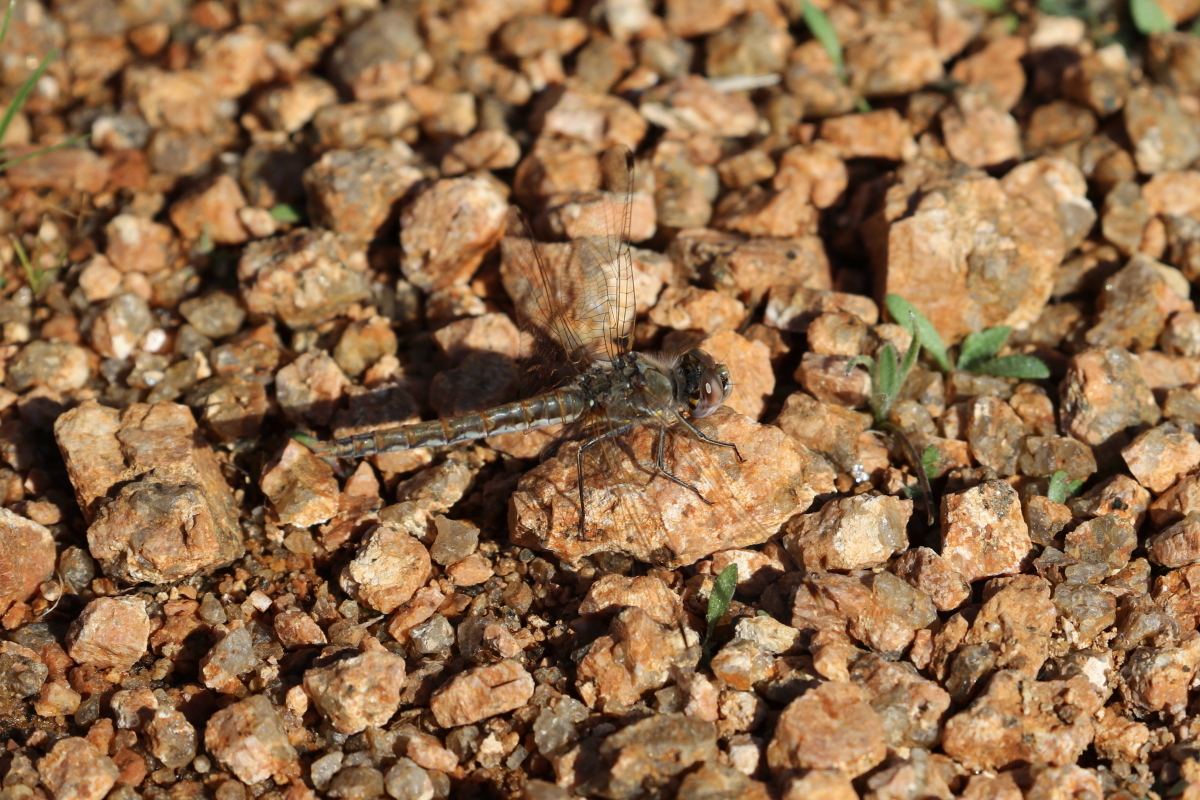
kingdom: Animalia
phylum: Arthropoda
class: Insecta
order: Odonata
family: Libellulidae
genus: Sympetrum
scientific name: Sympetrum corruptum
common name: Variegated meadowhawk
